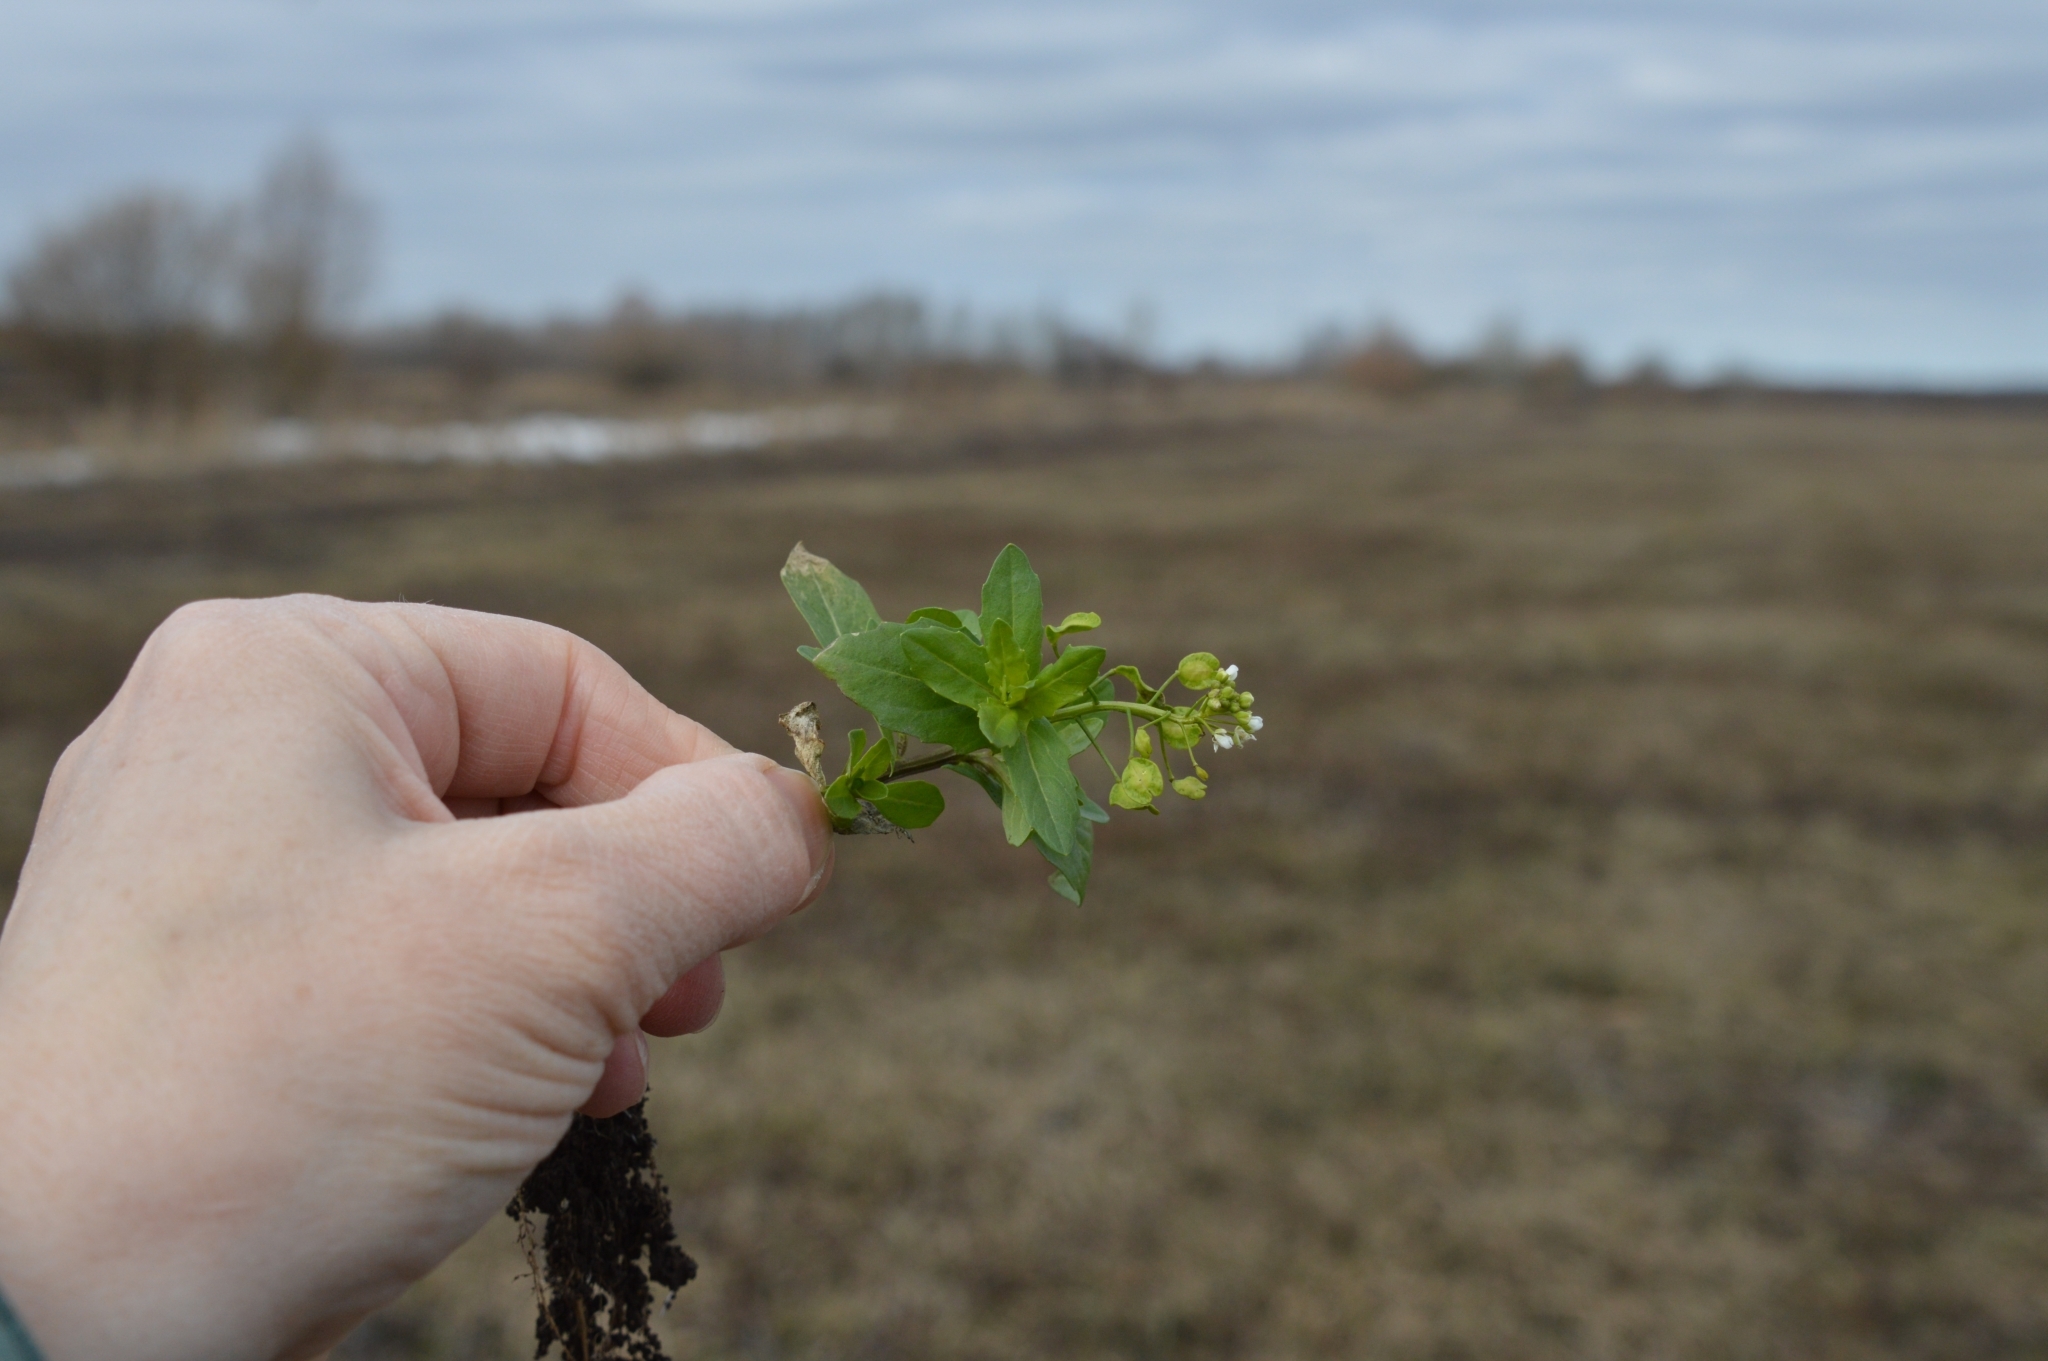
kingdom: Plantae
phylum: Tracheophyta
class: Magnoliopsida
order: Brassicales
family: Brassicaceae
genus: Thlaspi
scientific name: Thlaspi arvense
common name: Field pennycress
